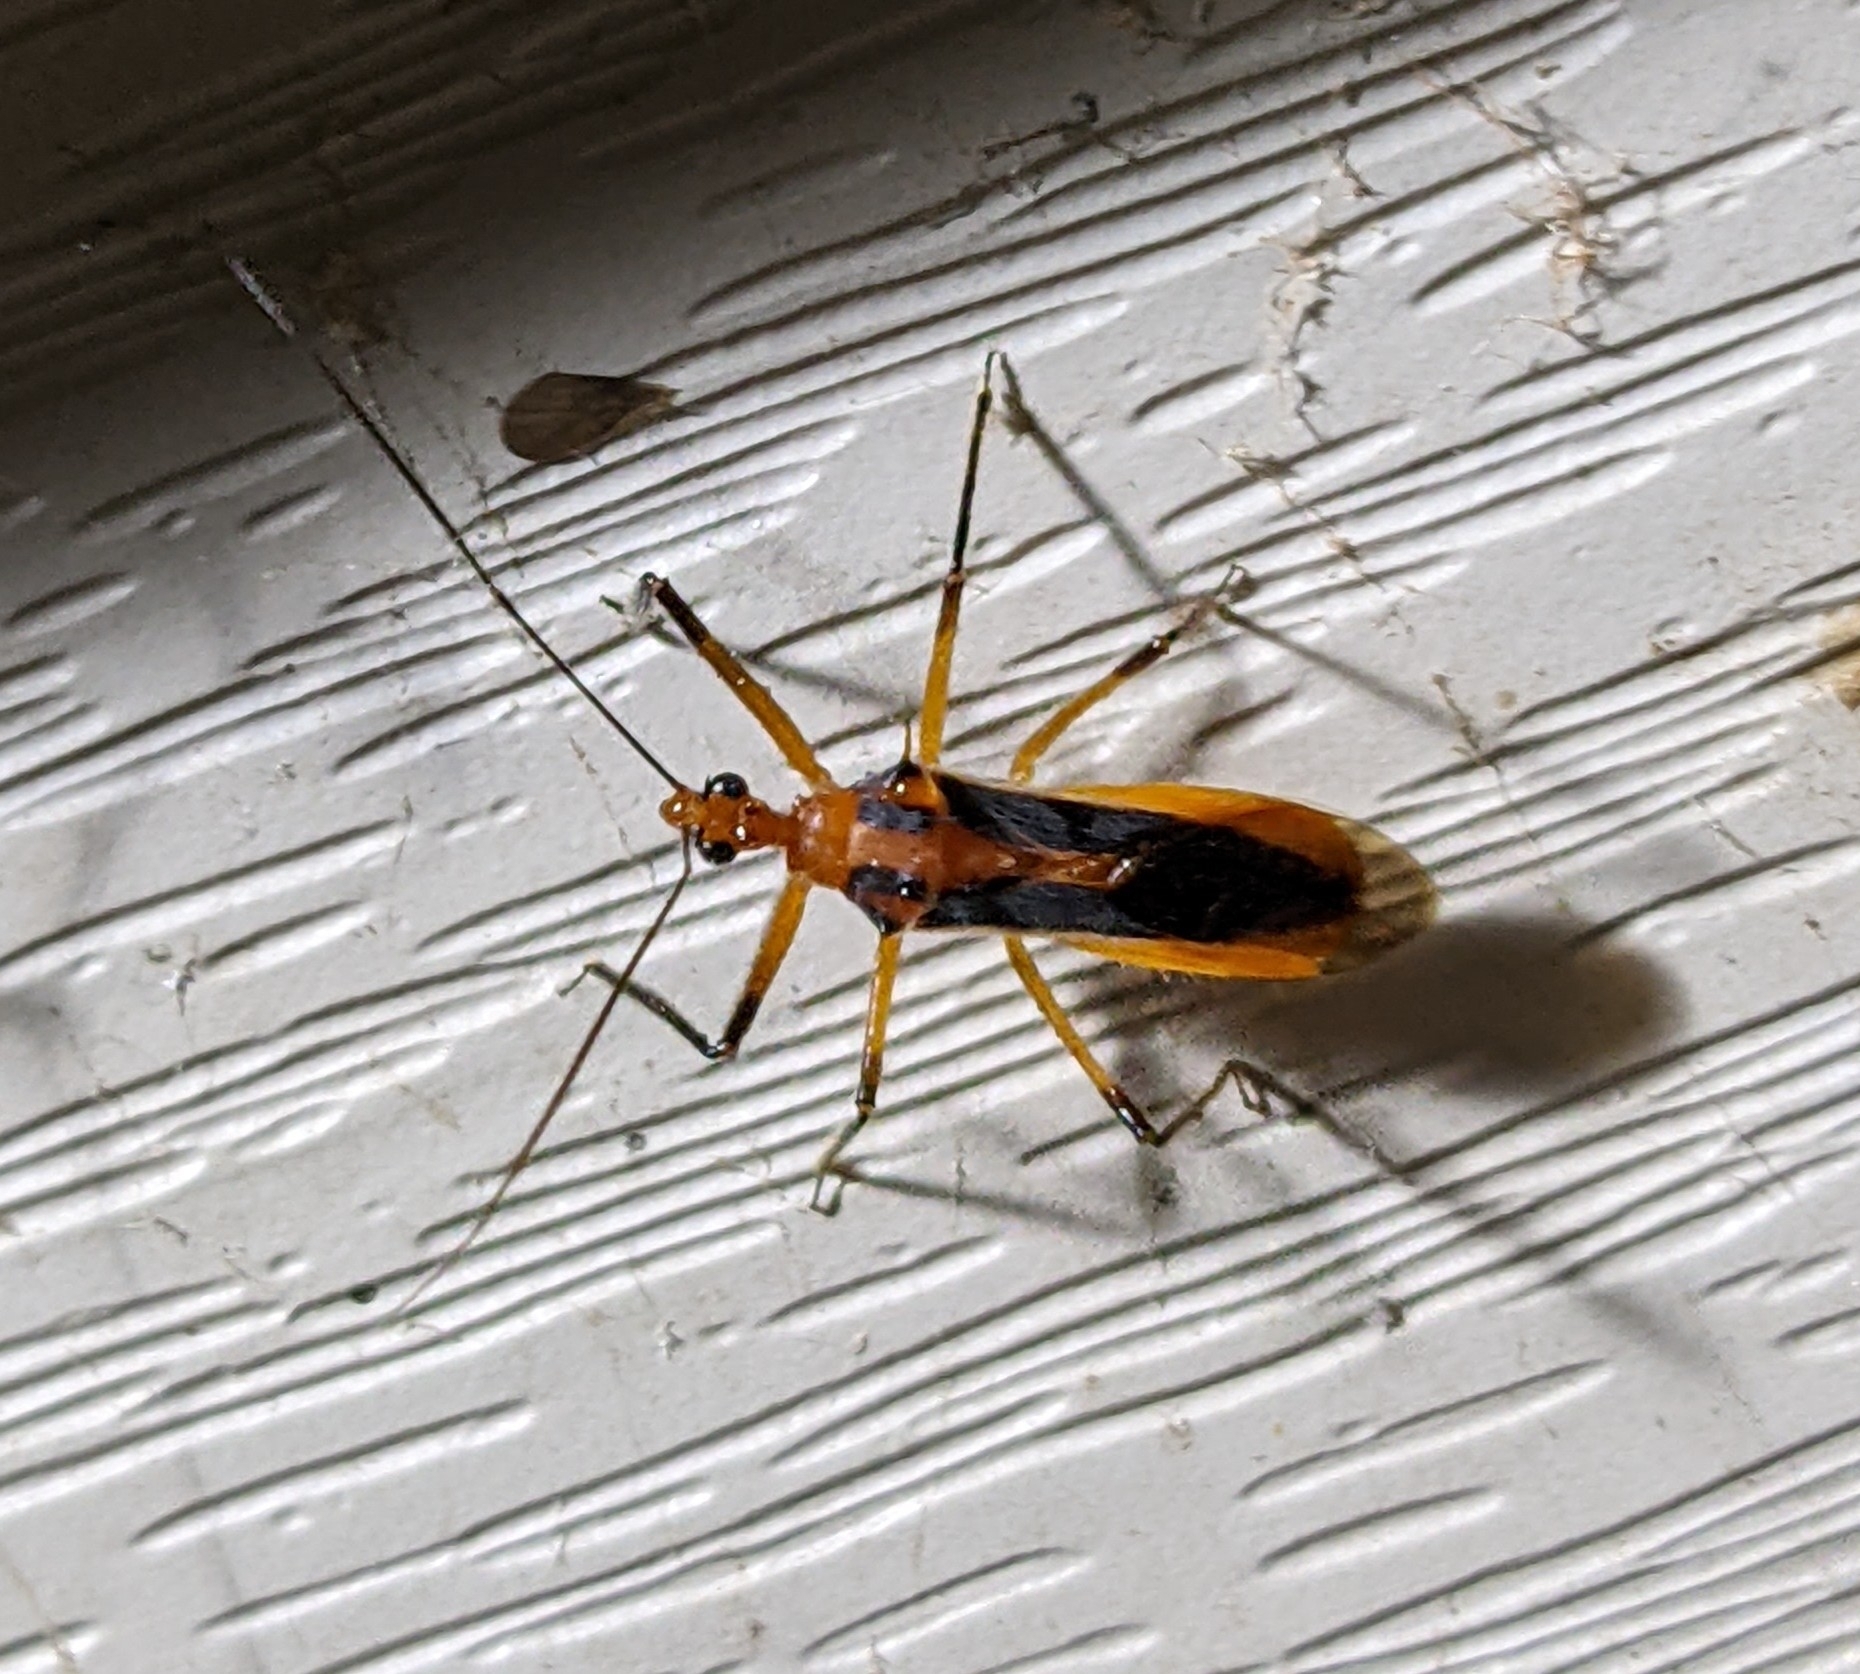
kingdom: Animalia
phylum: Arthropoda
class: Insecta
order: Hemiptera
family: Reduviidae
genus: Repipta
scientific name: Repipta taurus
